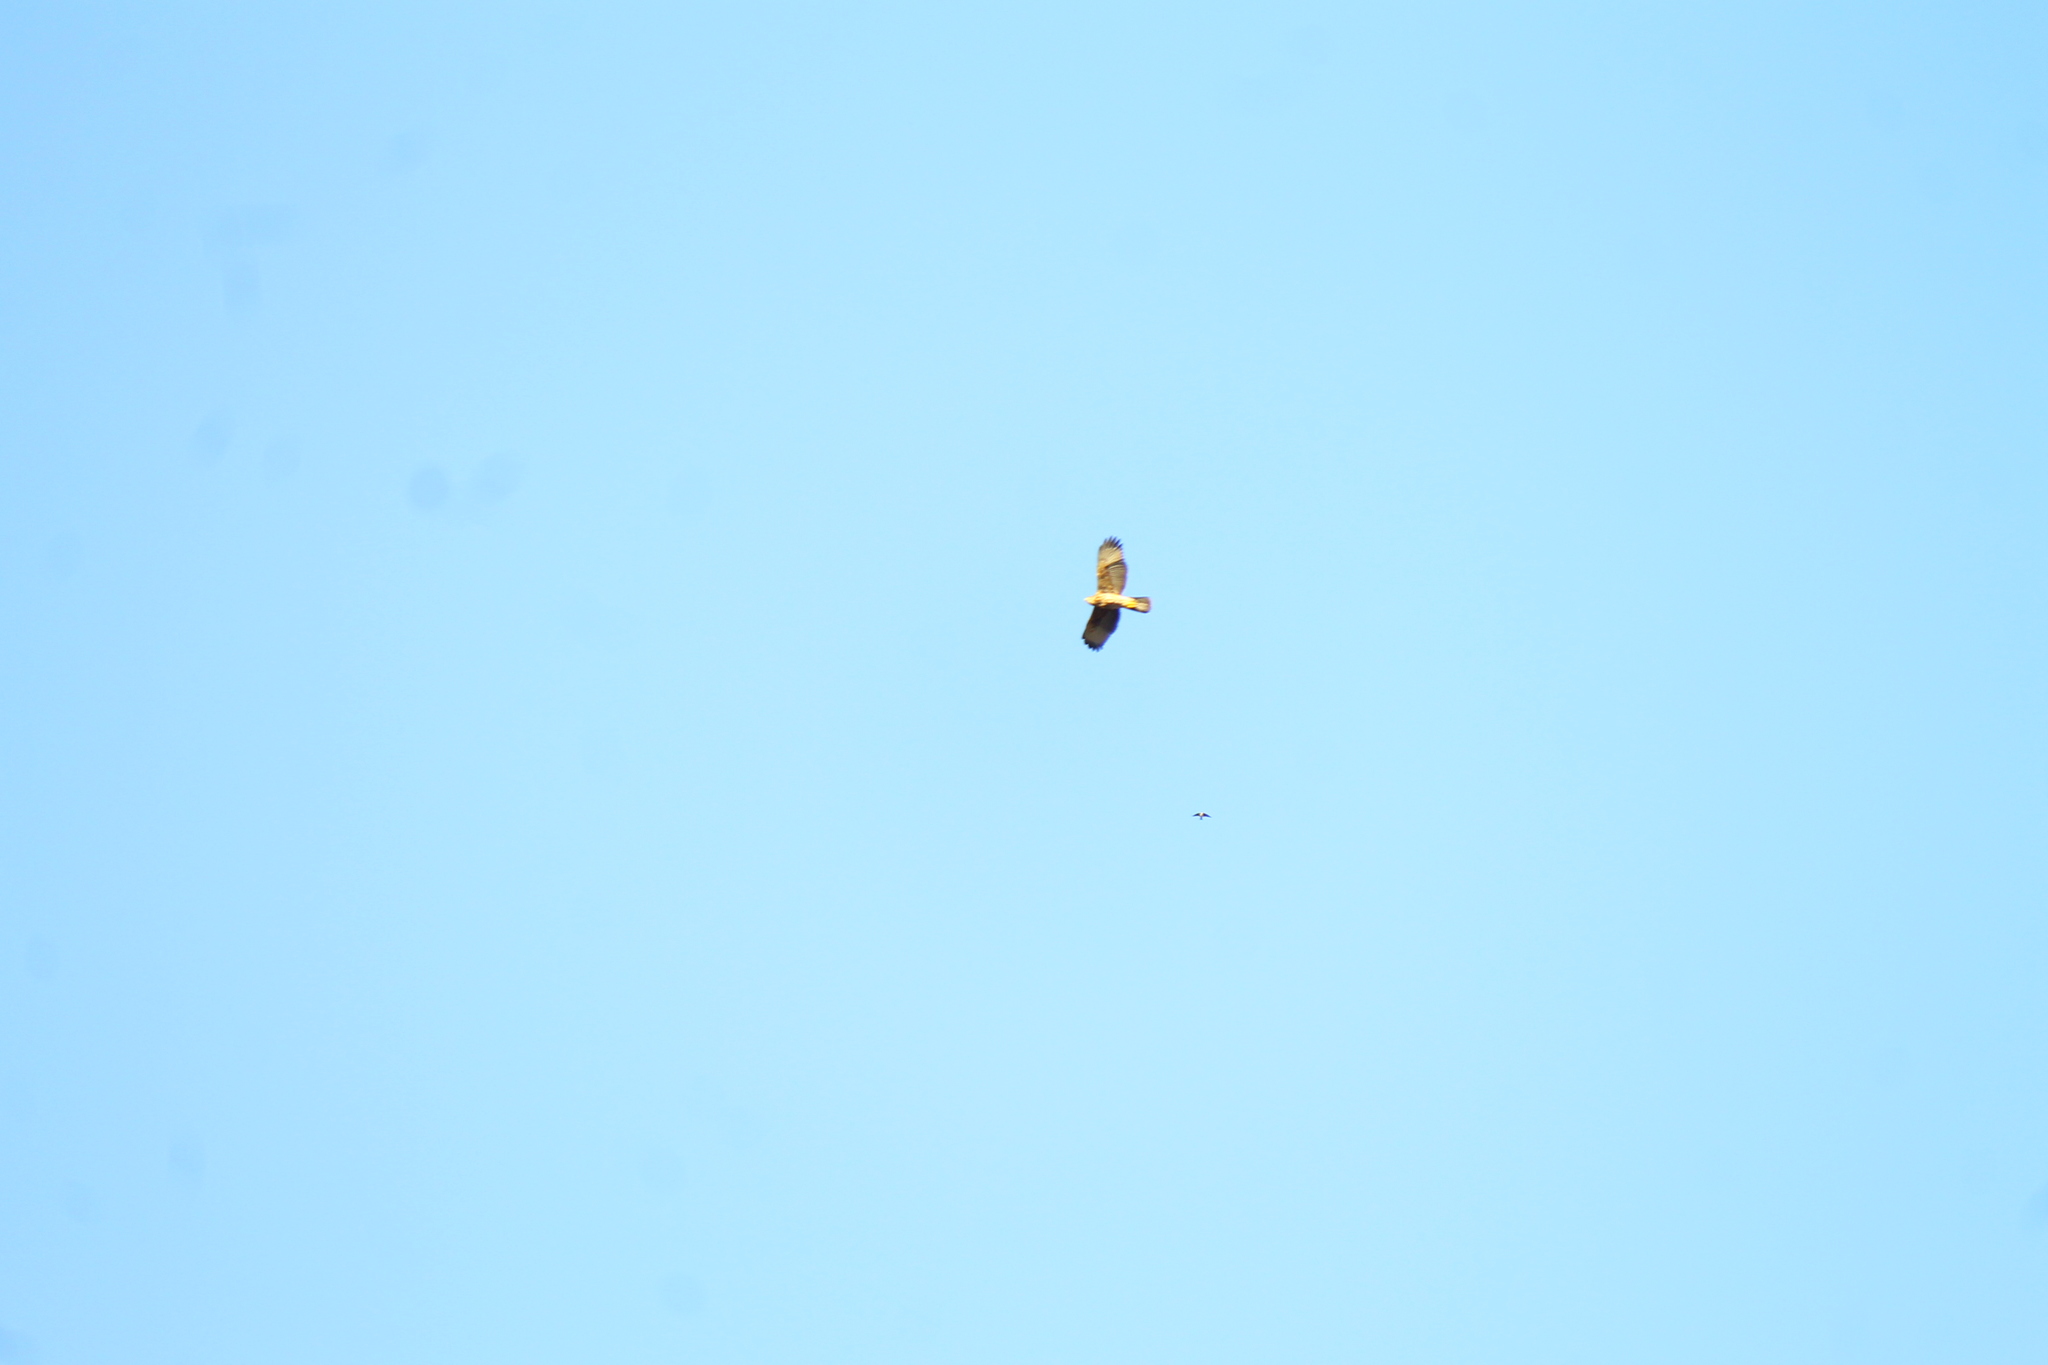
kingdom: Animalia
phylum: Chordata
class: Aves
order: Accipitriformes
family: Accipitridae
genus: Parabuteo
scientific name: Parabuteo unicinctus
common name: Harris's hawk
